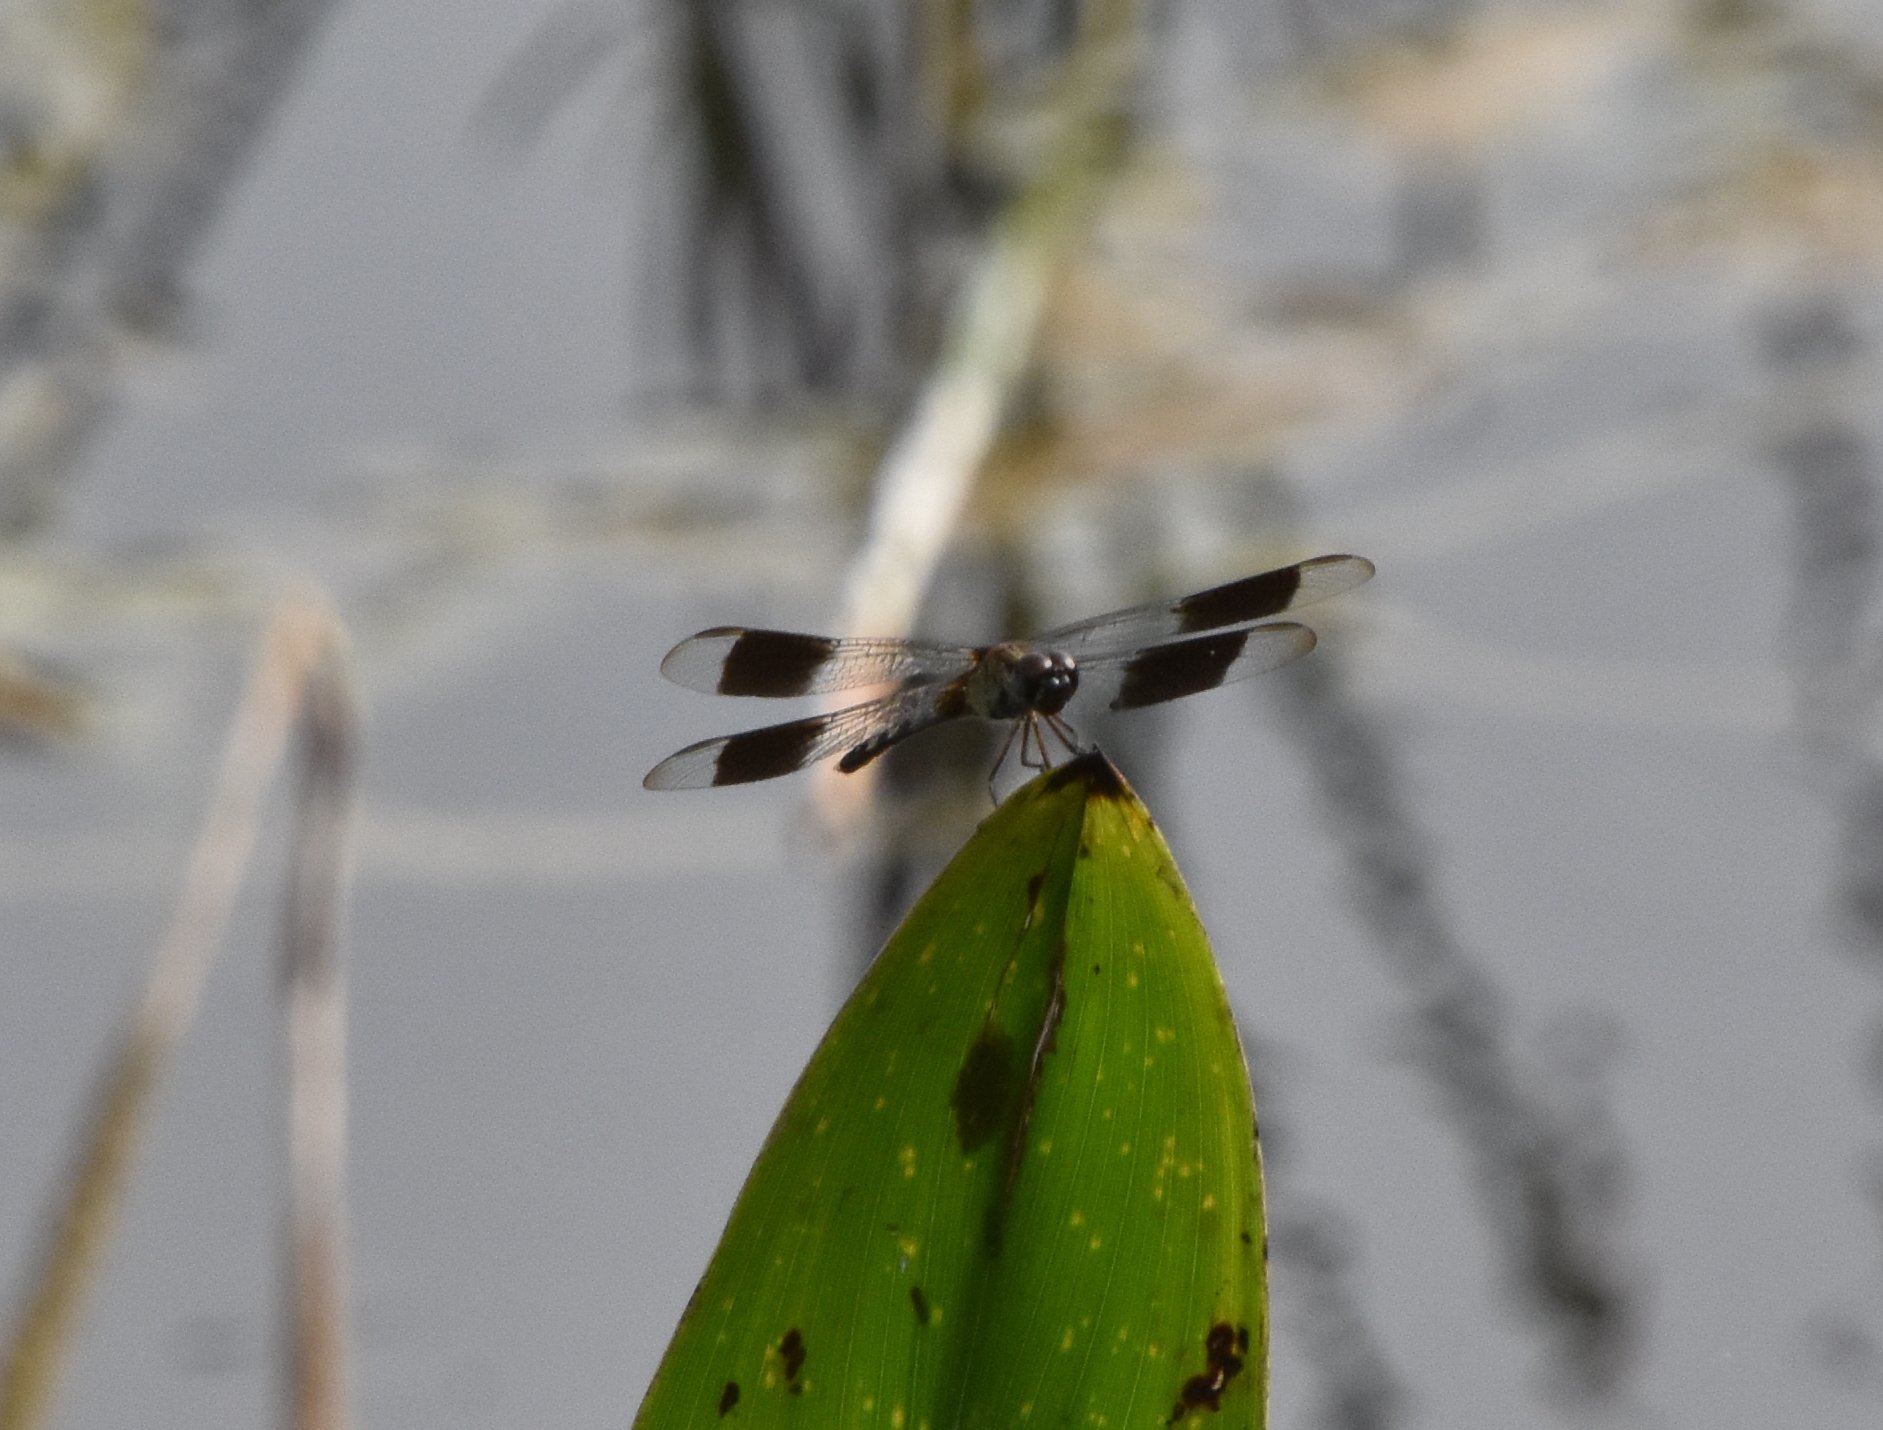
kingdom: Animalia
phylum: Arthropoda
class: Insecta
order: Odonata
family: Libellulidae
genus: Erythrodiplax
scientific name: Erythrodiplax umbrata
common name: Band-winged dragonlet
